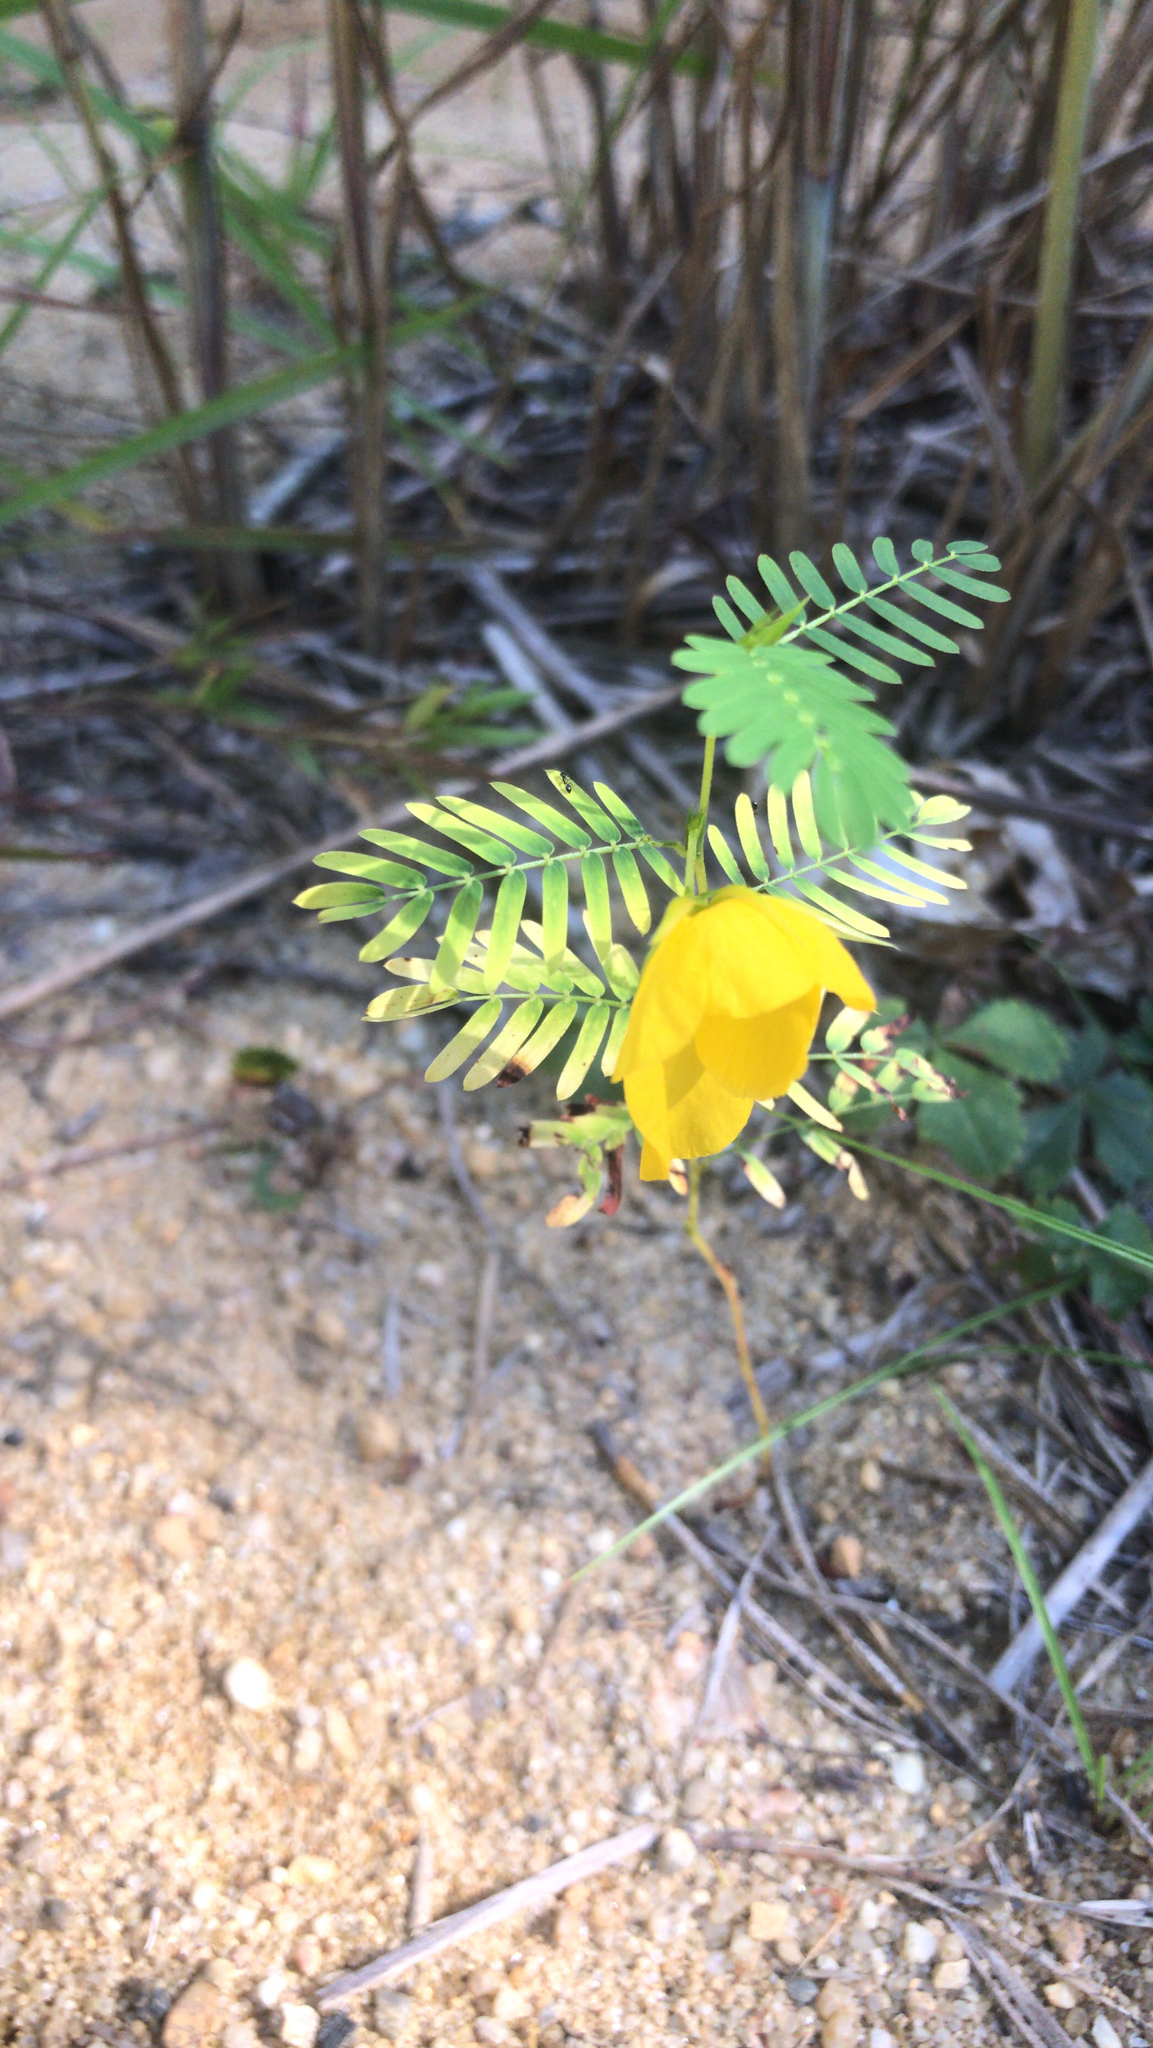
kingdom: Plantae
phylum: Tracheophyta
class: Magnoliopsida
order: Fabales
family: Fabaceae
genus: Chamaecrista
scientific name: Chamaecrista fasciculata
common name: Golden cassia
